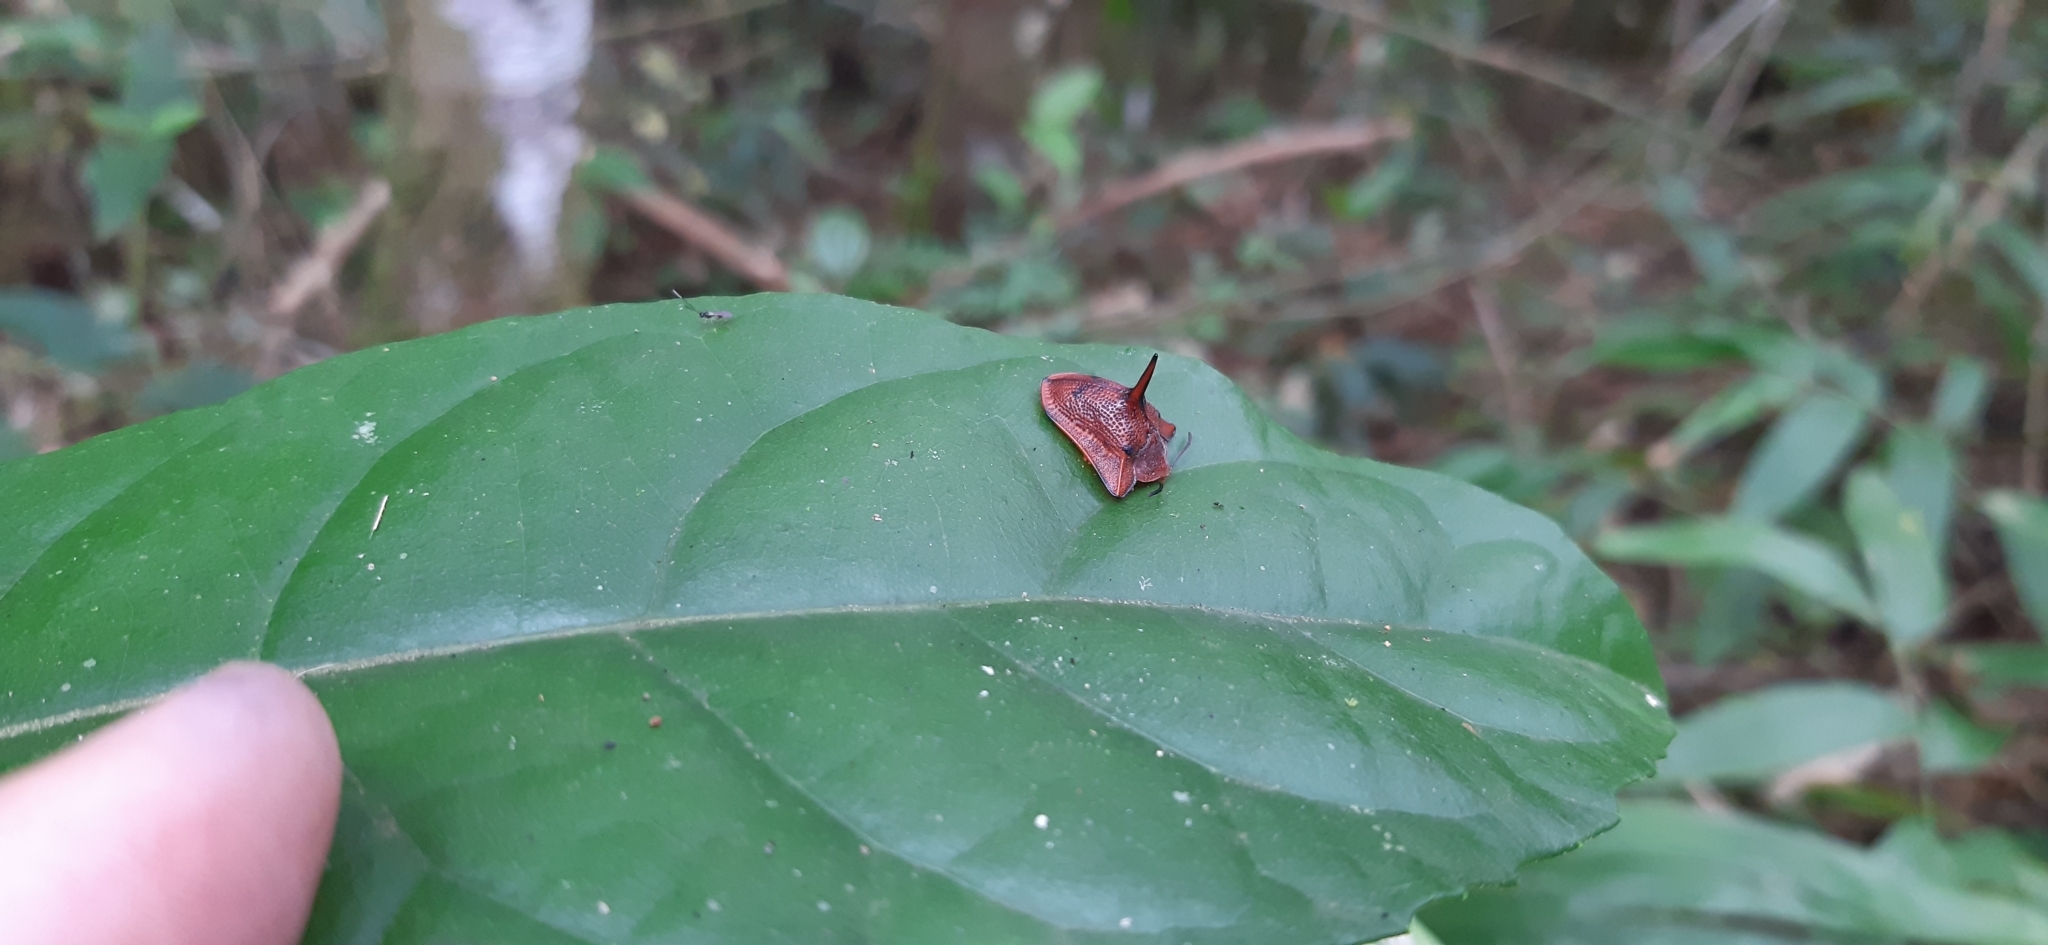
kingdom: Animalia
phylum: Arthropoda
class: Insecta
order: Coleoptera
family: Chrysomelidae
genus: Dorynota
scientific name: Dorynota monoceros
